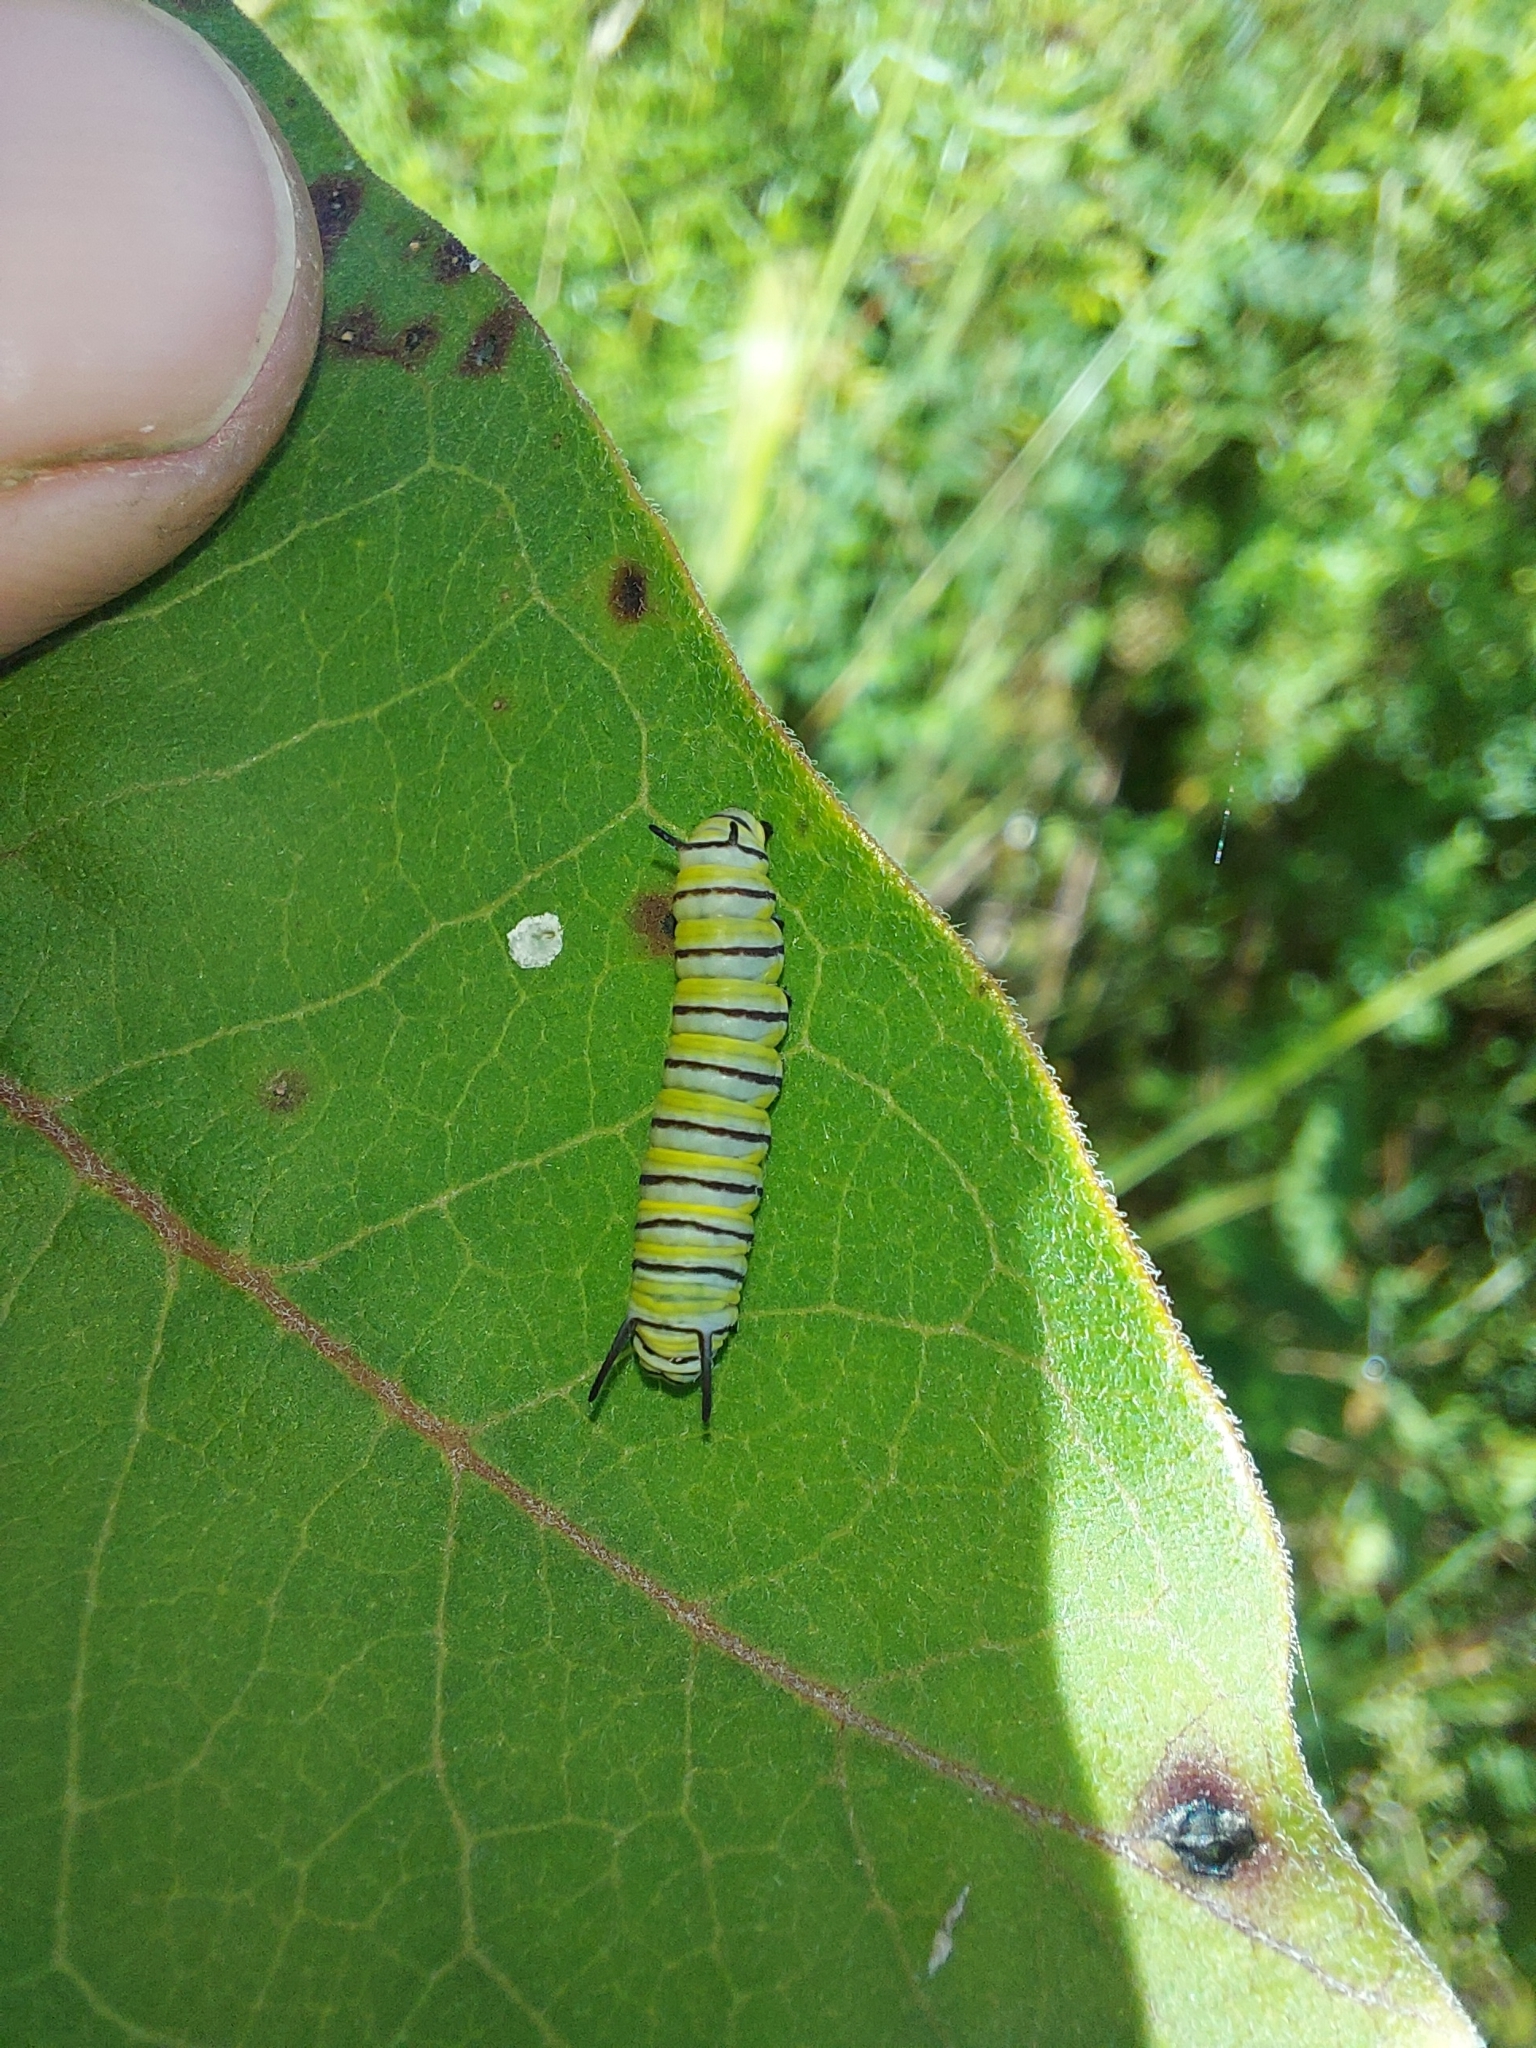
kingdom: Animalia
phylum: Arthropoda
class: Insecta
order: Lepidoptera
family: Nymphalidae
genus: Danaus
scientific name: Danaus plexippus
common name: Monarch
